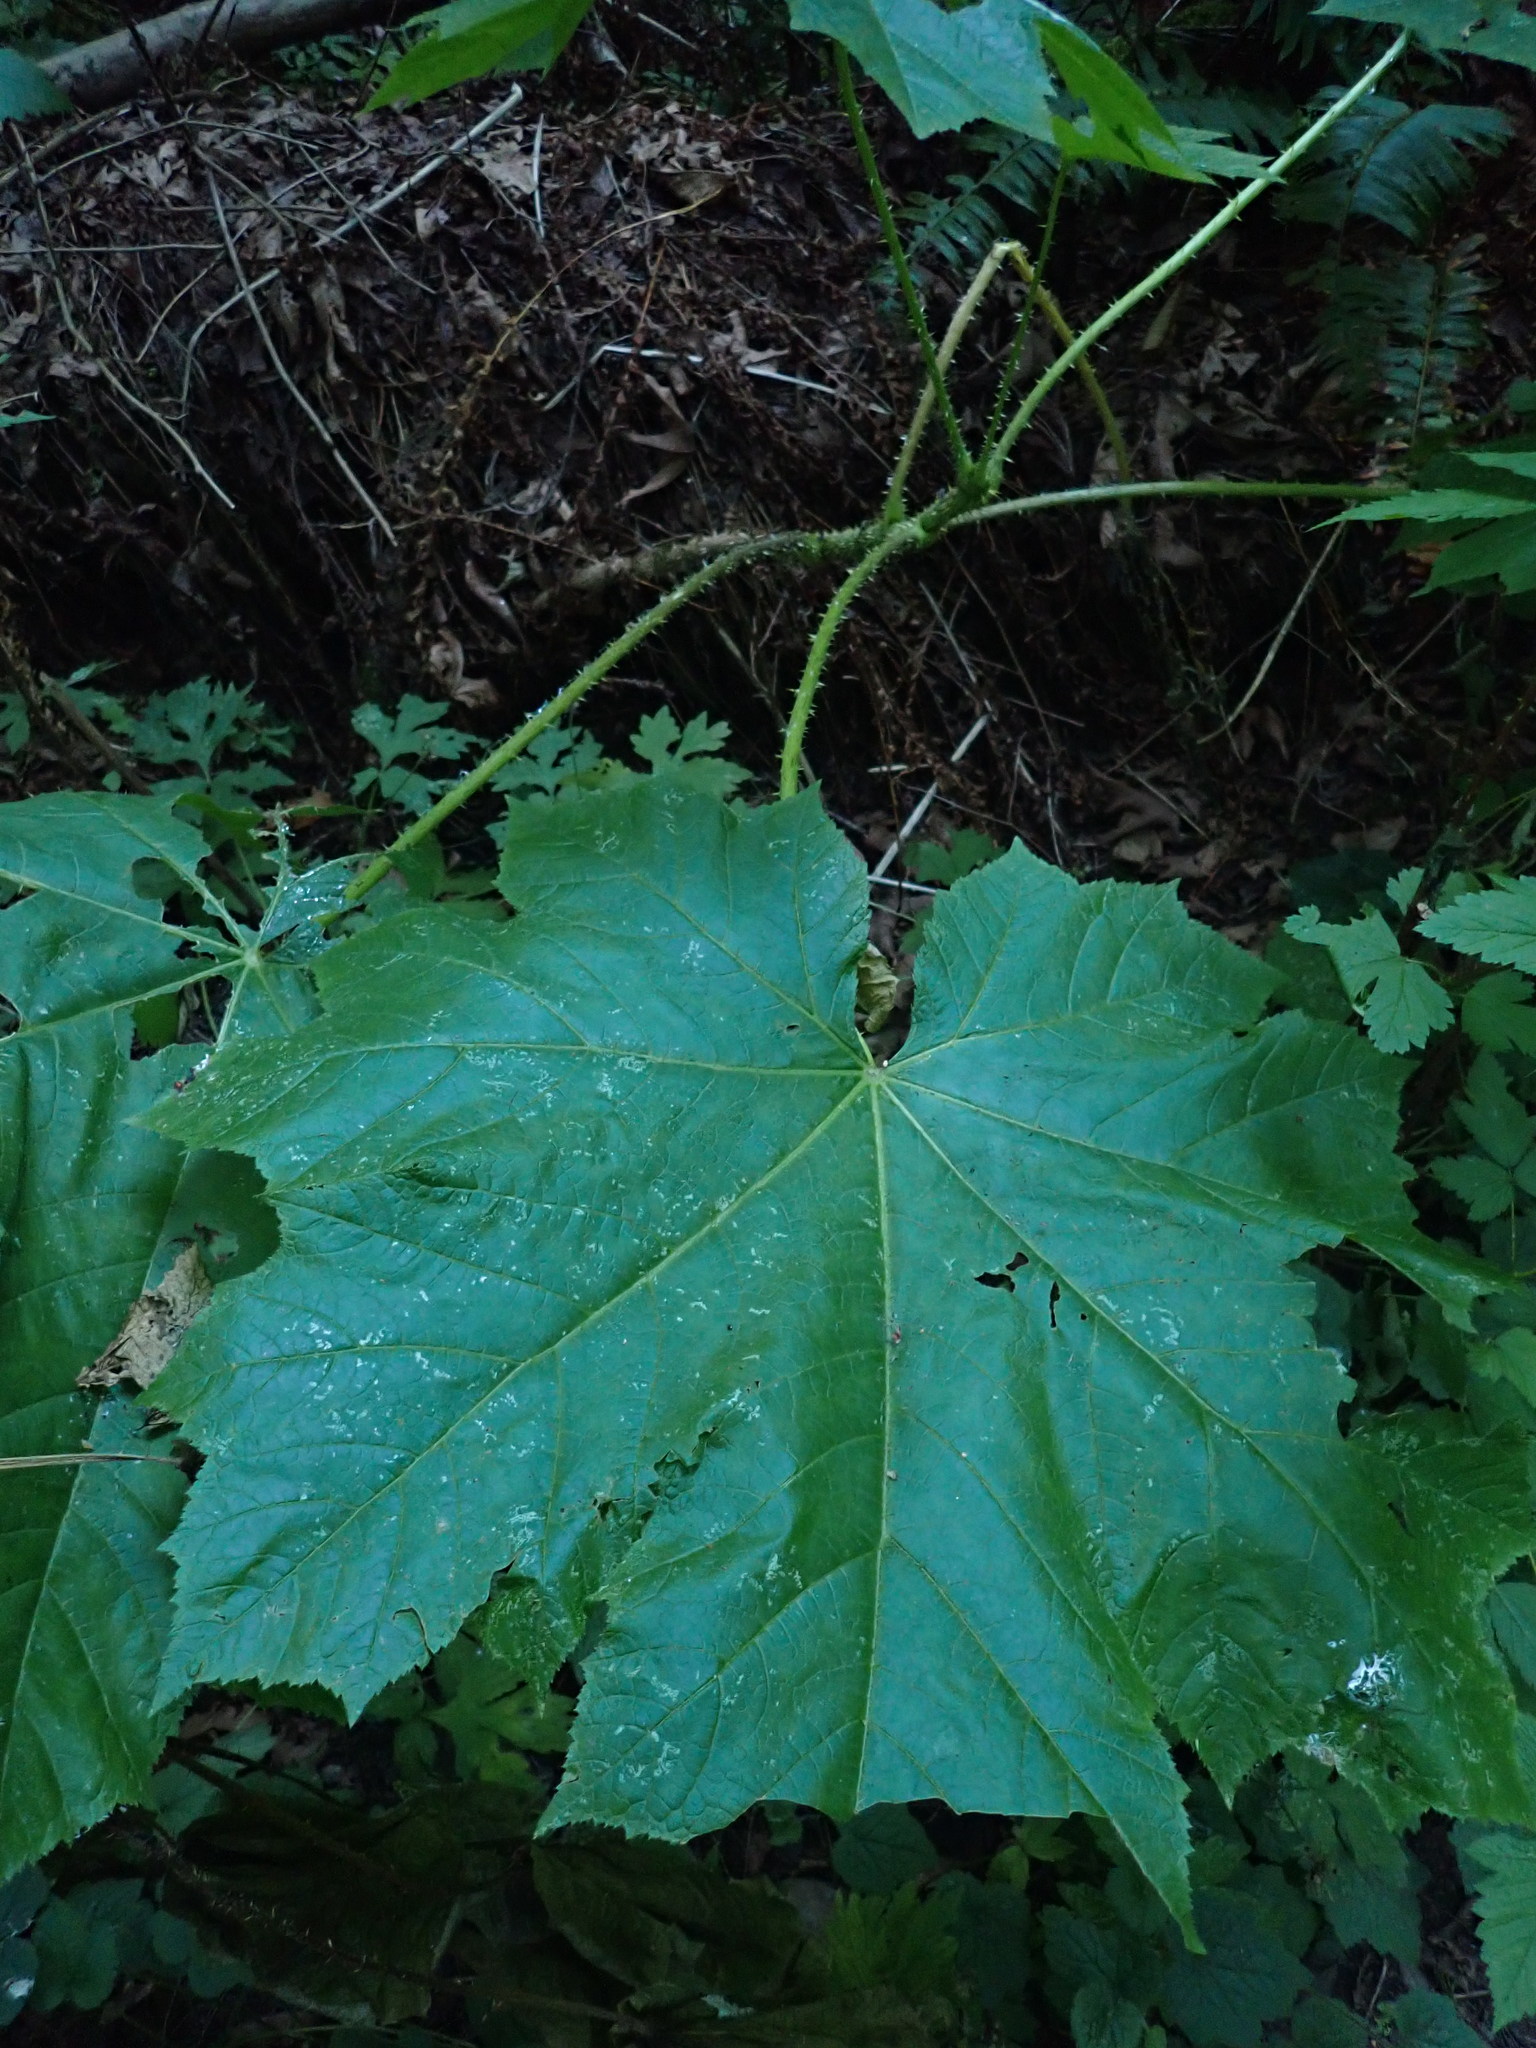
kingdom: Plantae
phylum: Tracheophyta
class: Magnoliopsida
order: Apiales
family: Araliaceae
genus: Oplopanax
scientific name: Oplopanax horridus
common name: Devil's walking-stick
